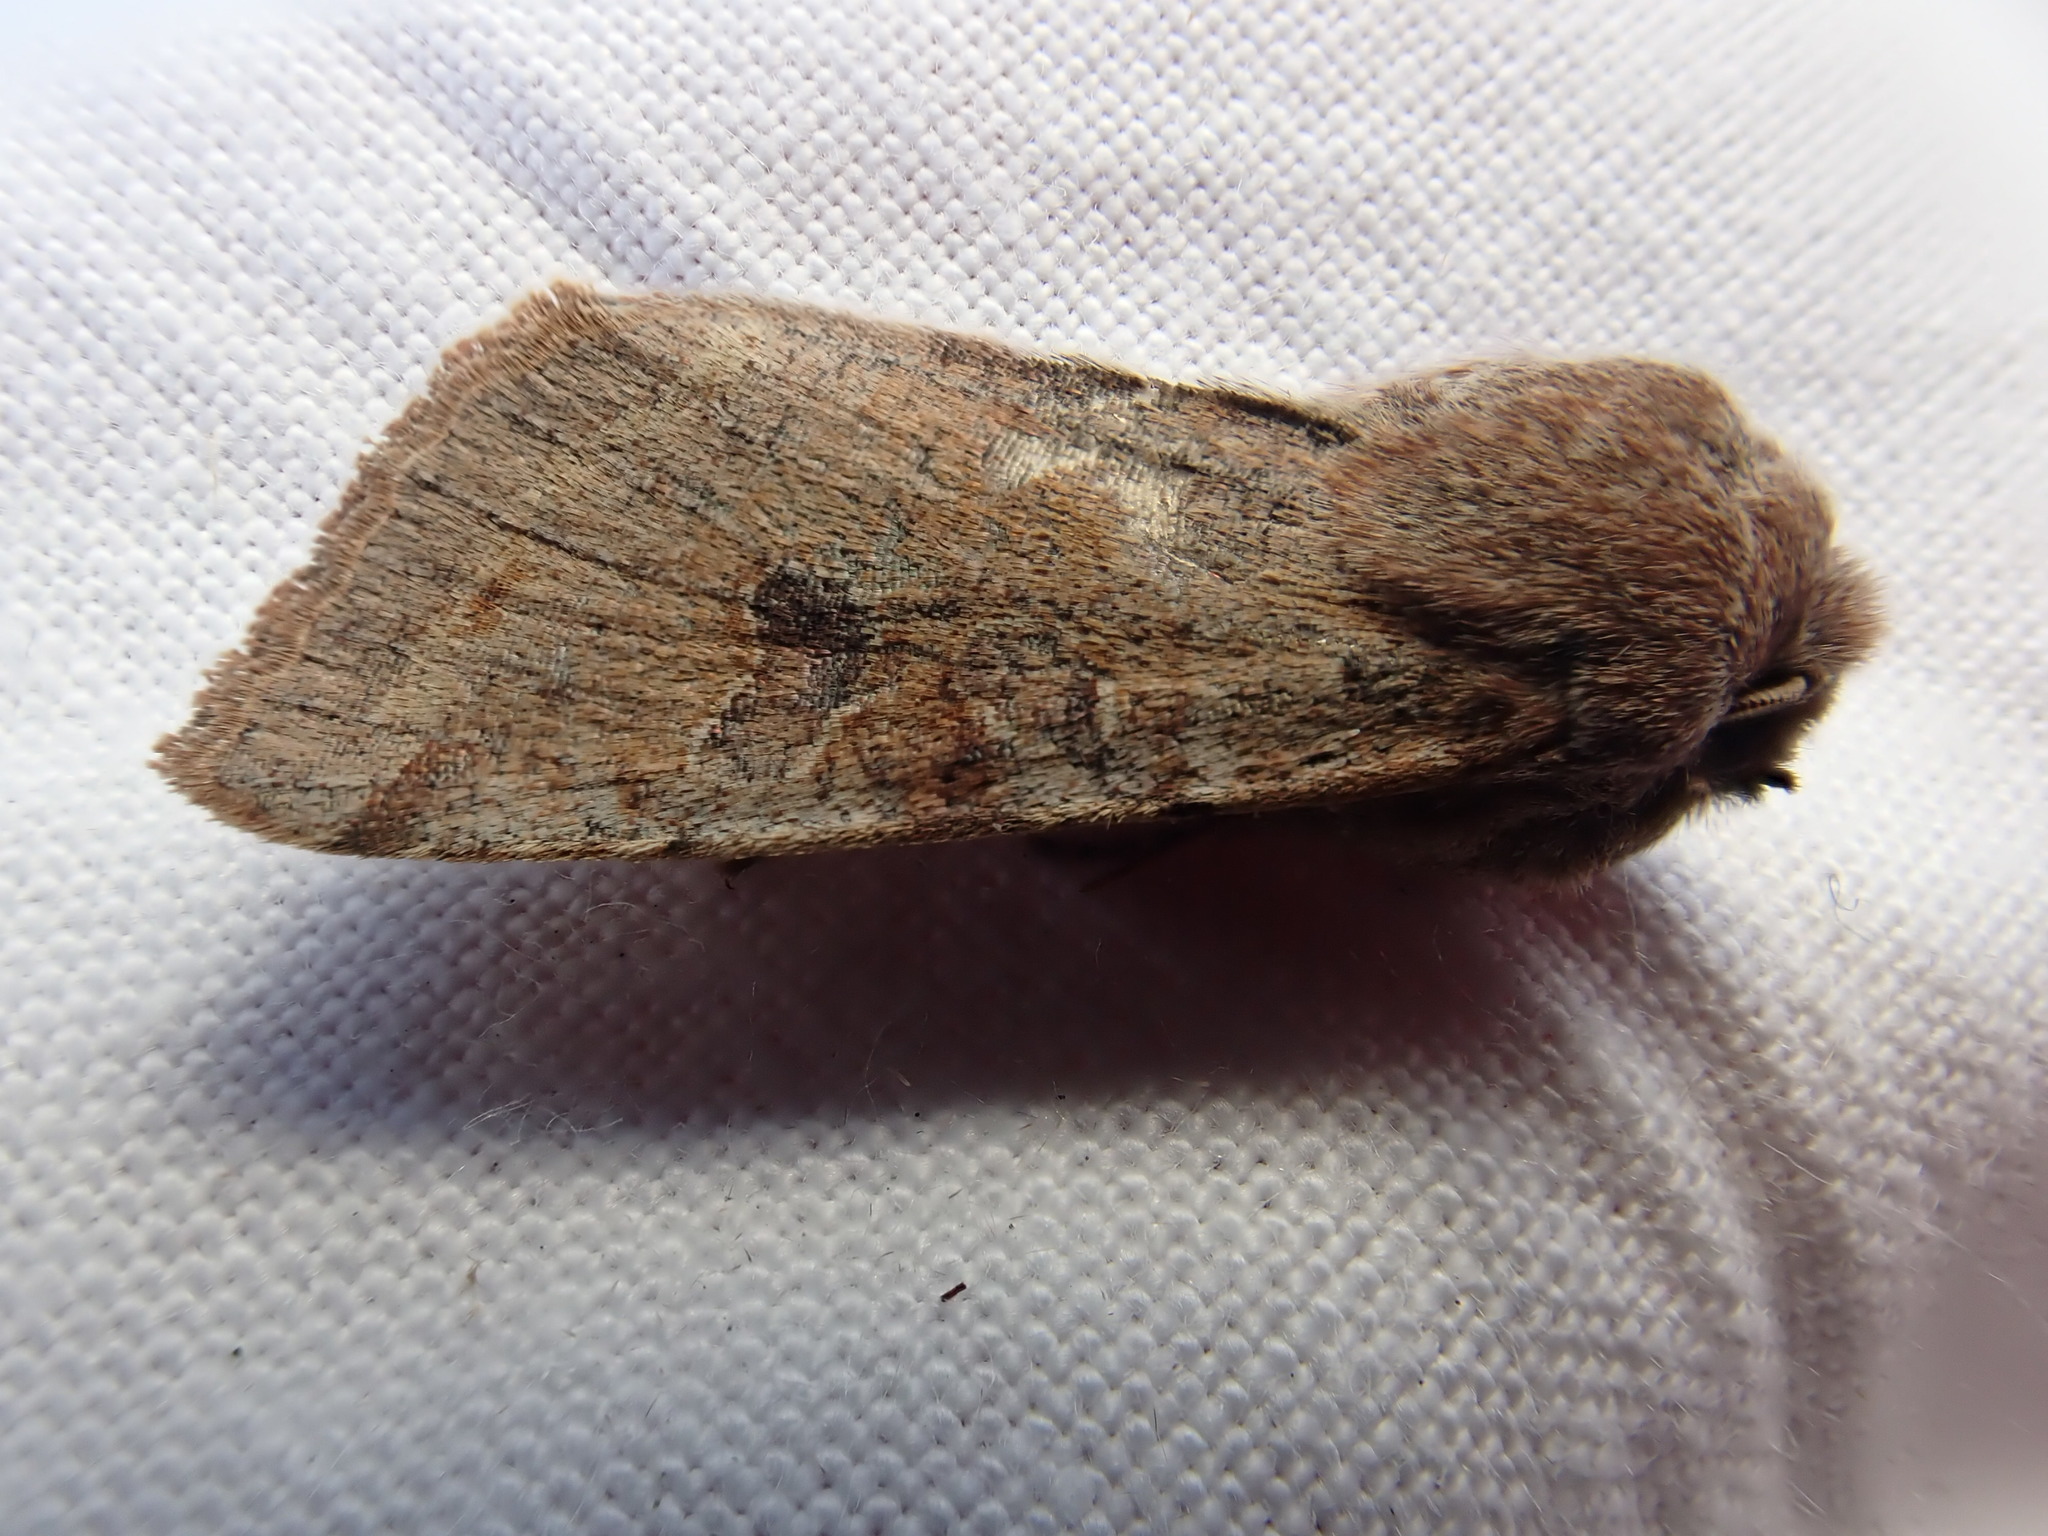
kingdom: Animalia
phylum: Arthropoda
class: Insecta
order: Lepidoptera
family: Noctuidae
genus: Orthosia
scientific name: Orthosia incerta
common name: Clouded drab
